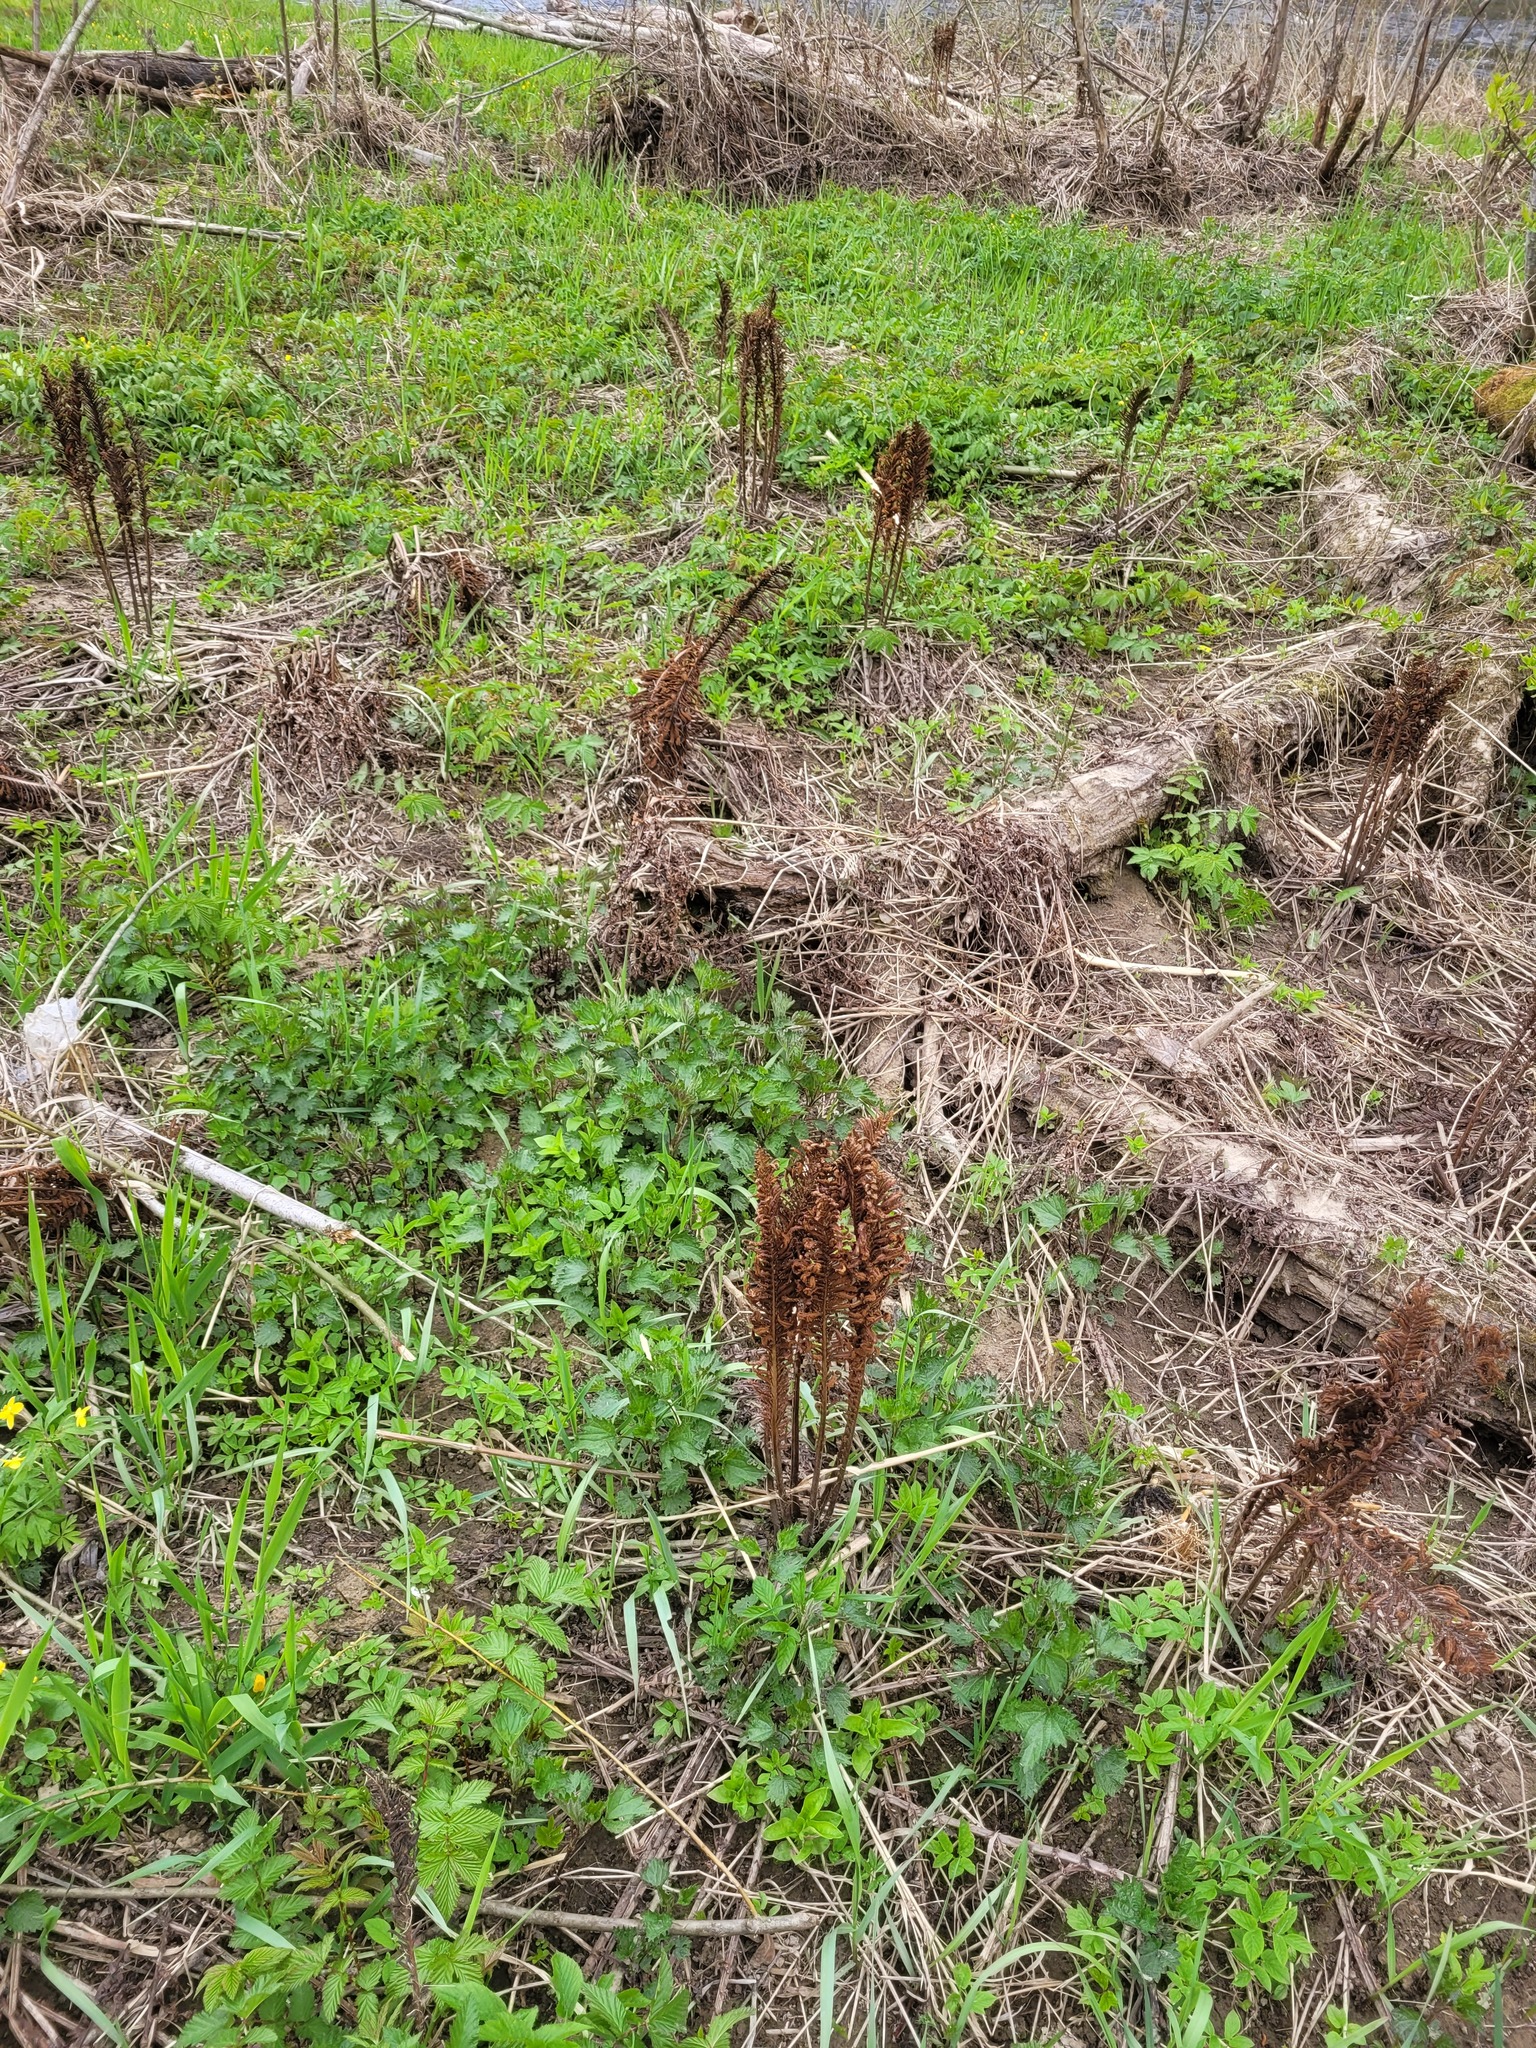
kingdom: Plantae
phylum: Tracheophyta
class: Polypodiopsida
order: Polypodiales
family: Onocleaceae
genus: Matteuccia
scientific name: Matteuccia struthiopteris
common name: Ostrich fern
